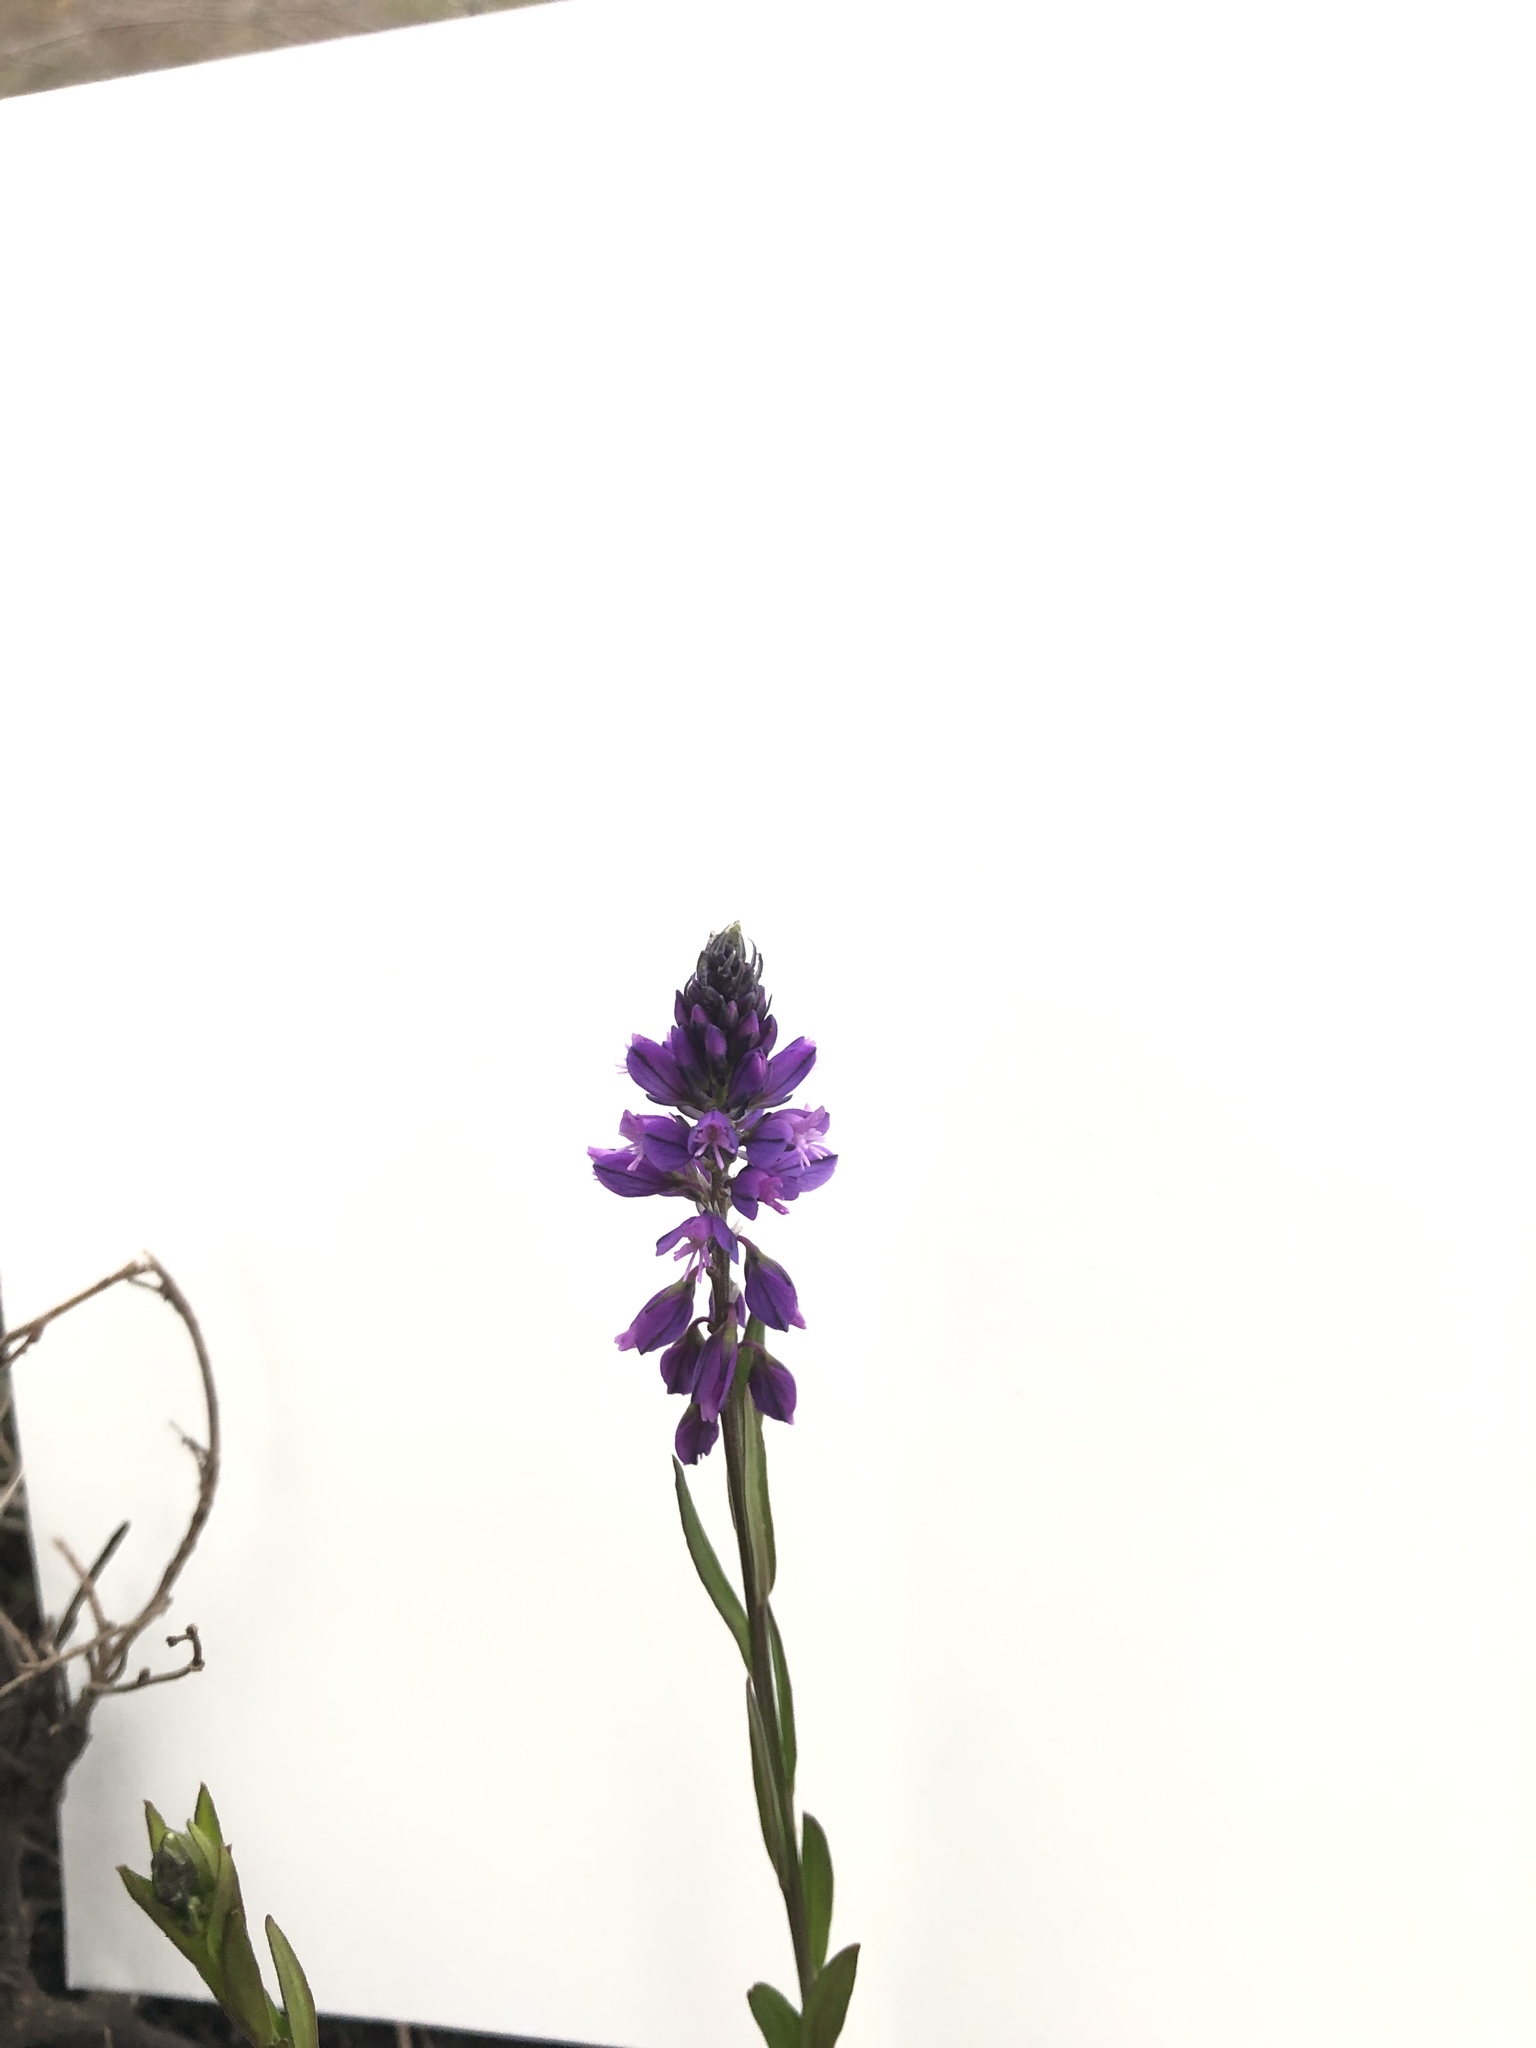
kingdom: Plantae
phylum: Tracheophyta
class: Magnoliopsida
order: Fabales
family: Polygalaceae
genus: Polygala
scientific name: Polygala vulgaris
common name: Common milkwort
